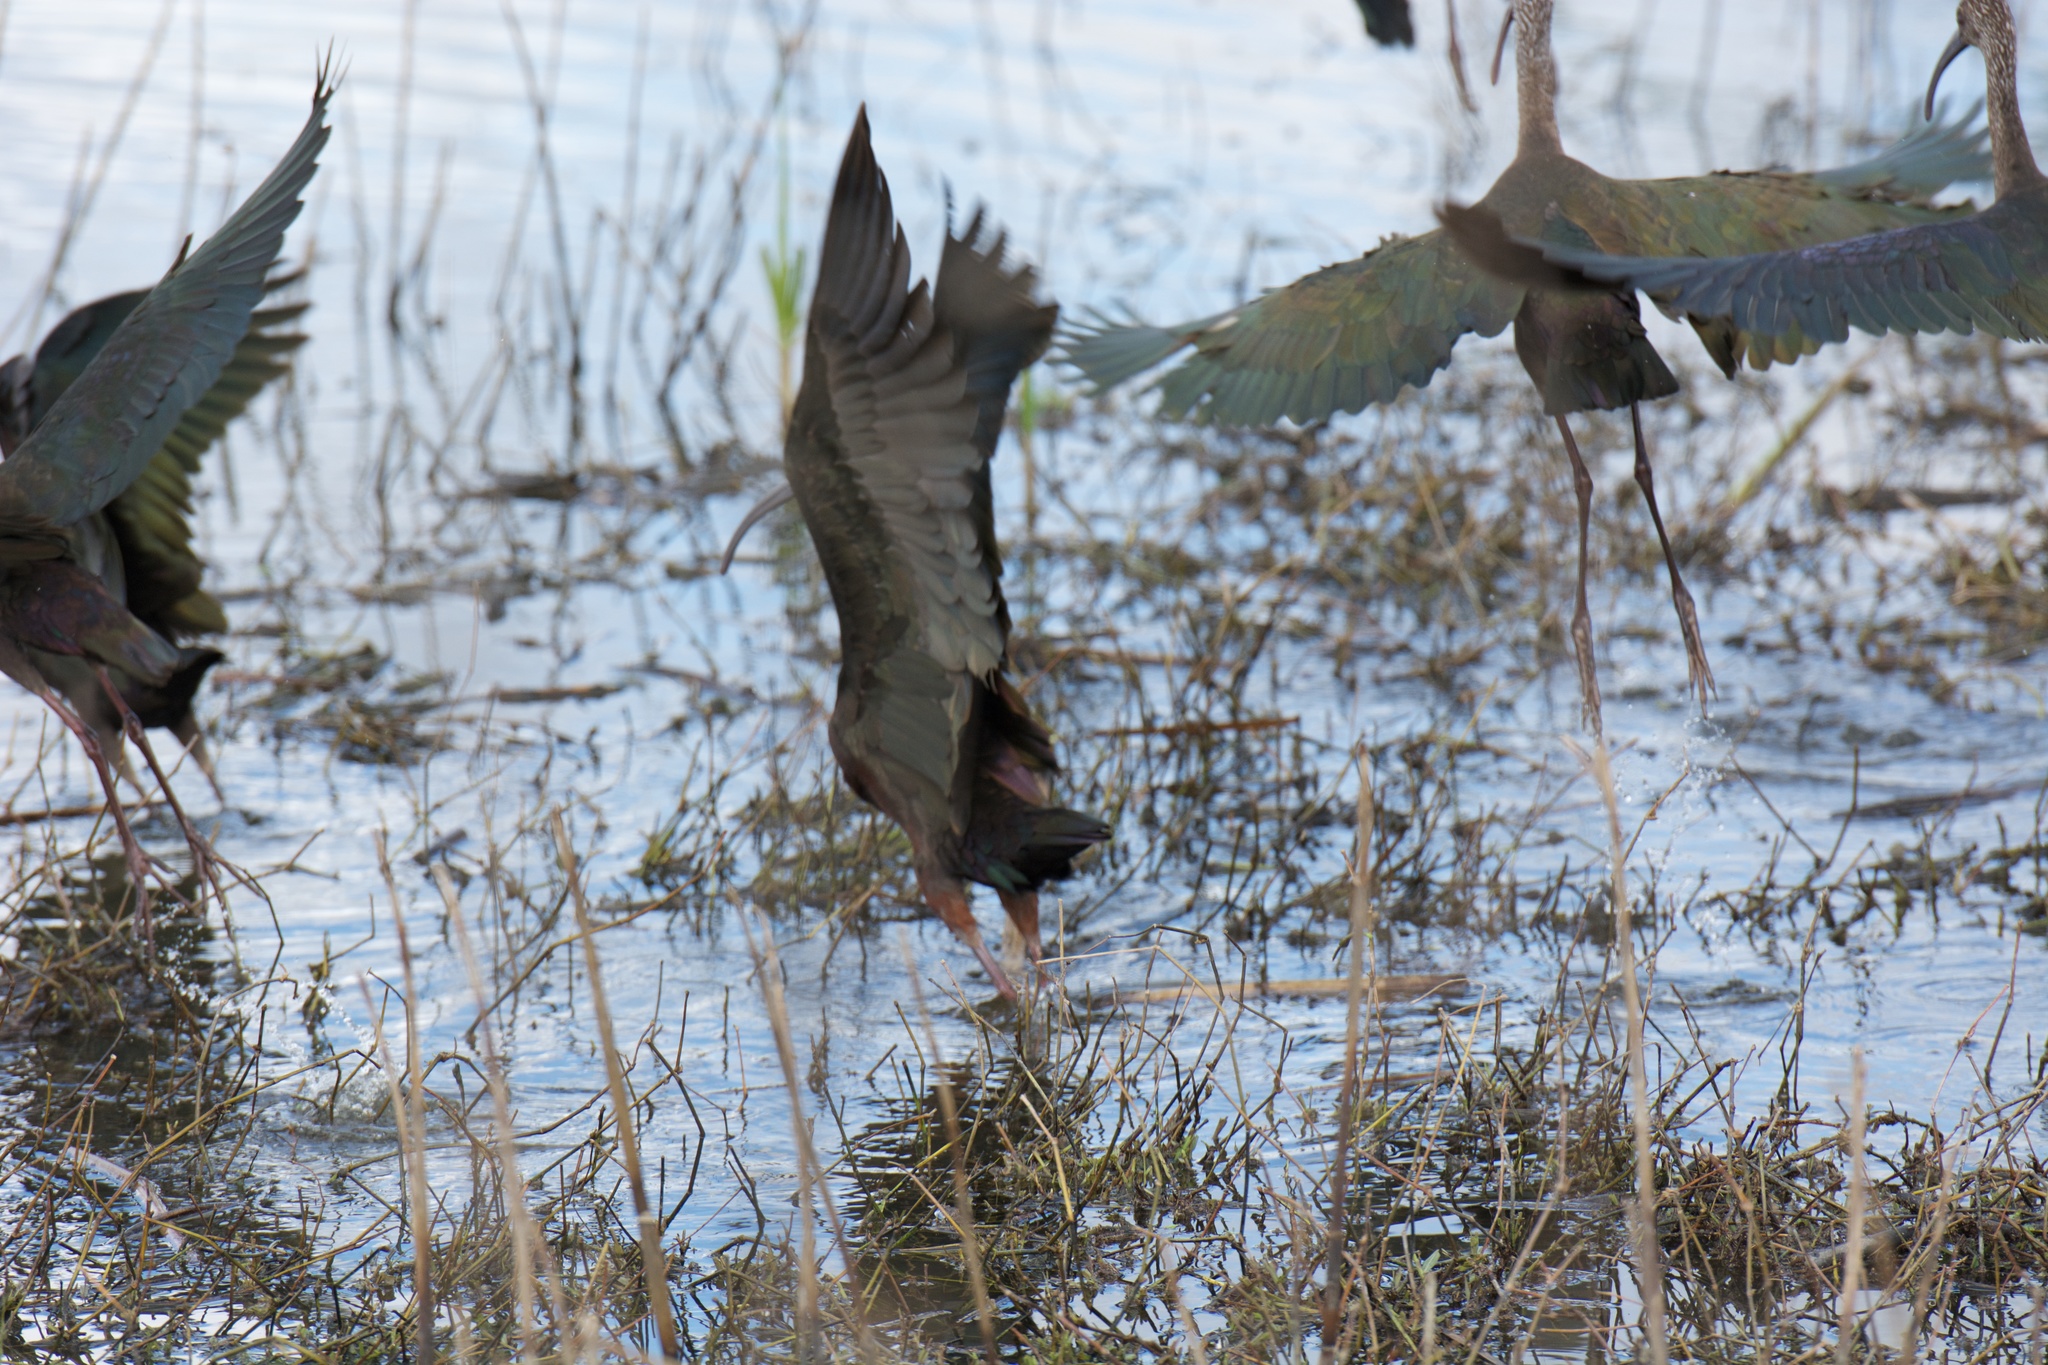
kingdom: Animalia
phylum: Chordata
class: Aves
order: Pelecaniformes
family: Threskiornithidae
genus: Plegadis
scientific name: Plegadis chihi
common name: White-faced ibis
